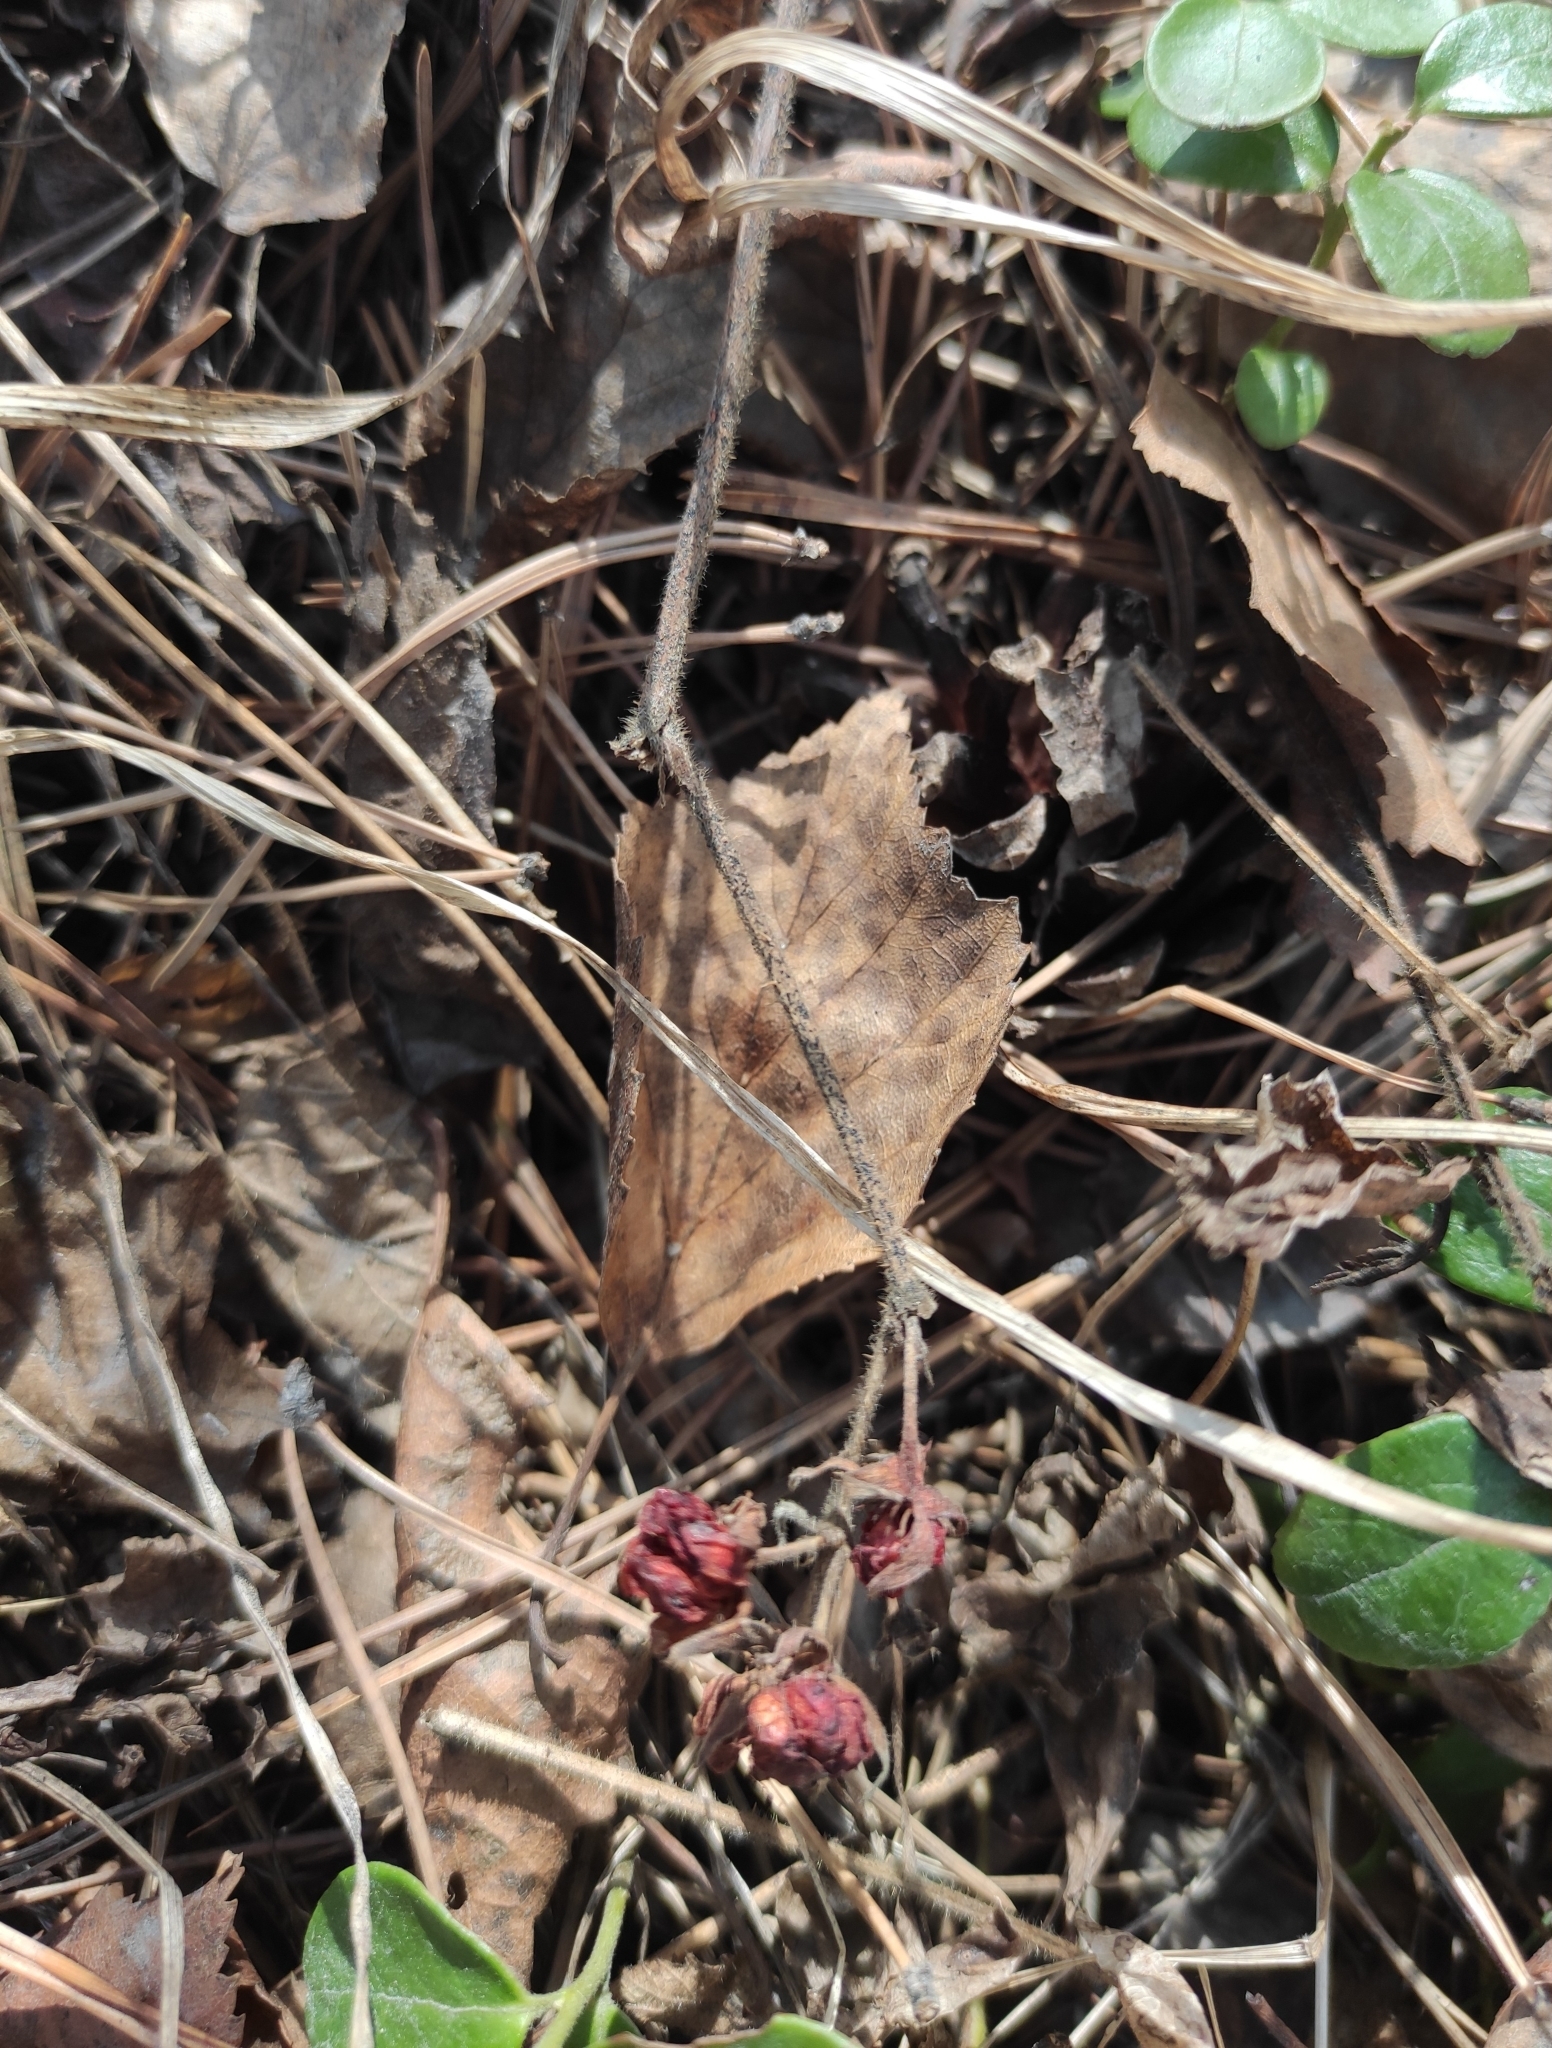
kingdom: Plantae
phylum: Tracheophyta
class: Magnoliopsida
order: Rosales
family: Rosaceae
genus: Rubus
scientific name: Rubus saxatilis
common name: Stone bramble
